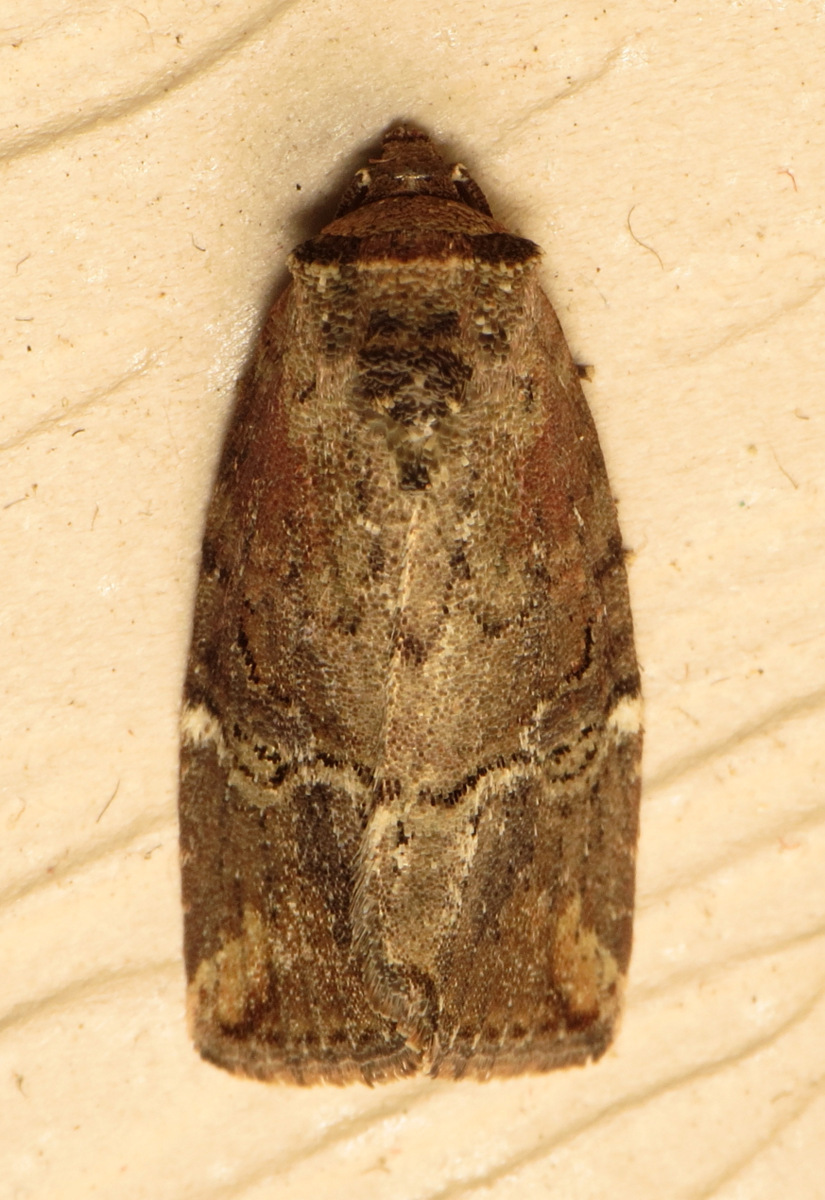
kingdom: Animalia
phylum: Arthropoda
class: Insecta
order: Lepidoptera
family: Noctuidae
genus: Elaphria
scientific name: Elaphria versicolor
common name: Fir harlequin
